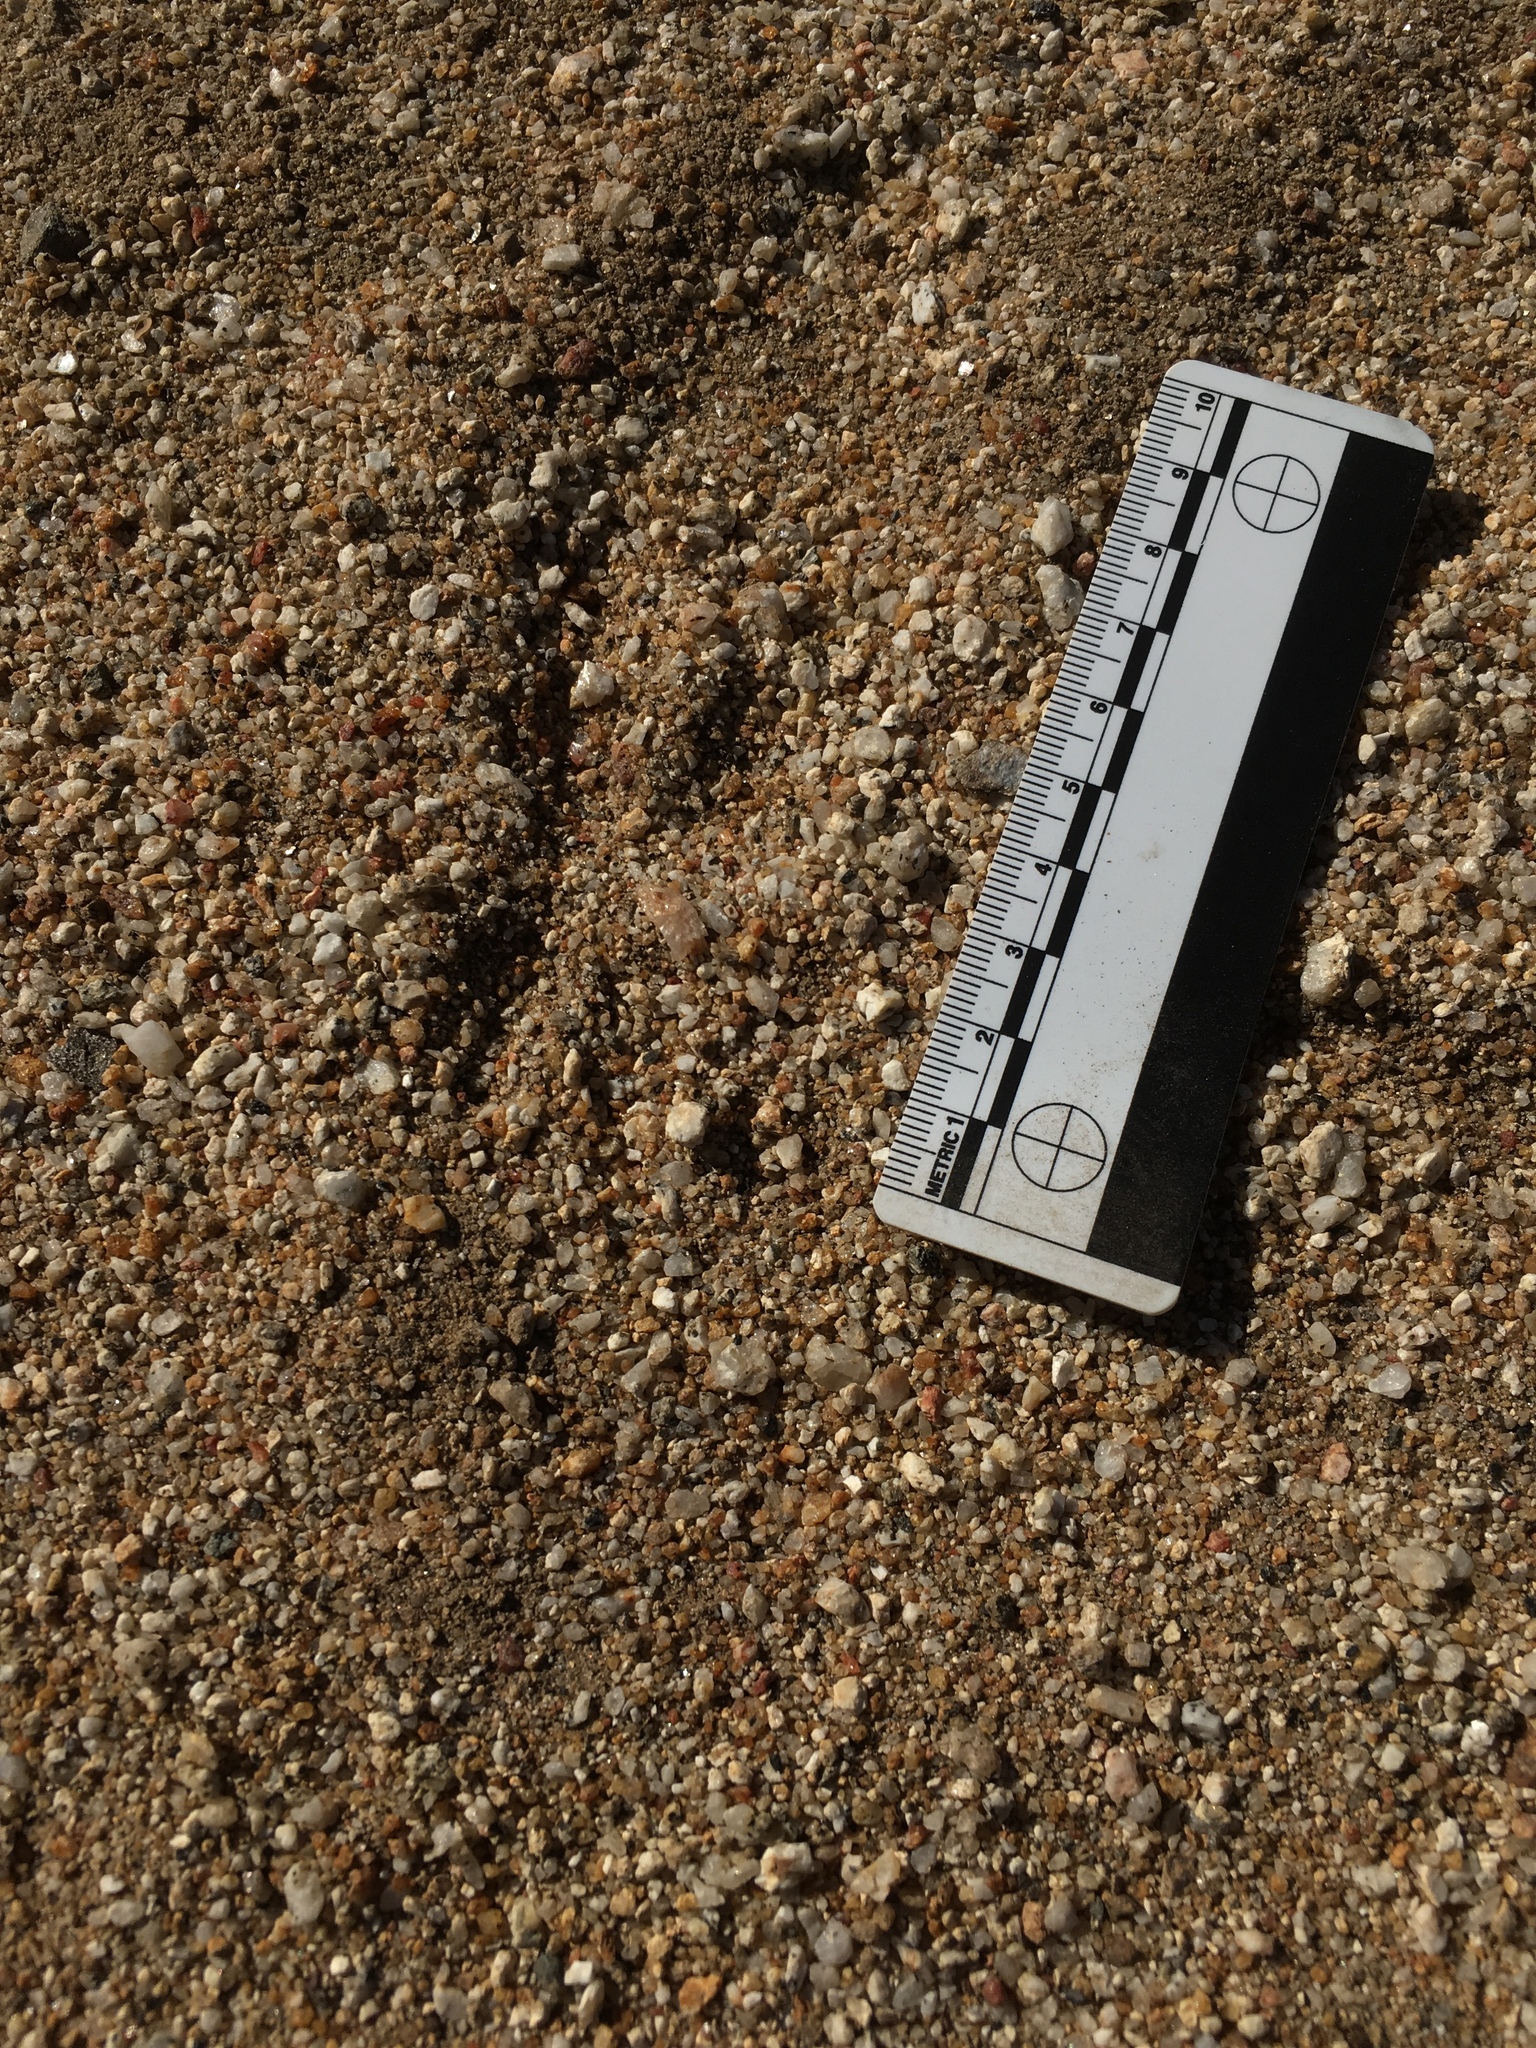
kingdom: Animalia
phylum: Chordata
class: Aves
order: Cuculiformes
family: Cuculidae
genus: Geococcyx
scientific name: Geococcyx californianus
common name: Greater roadrunner
